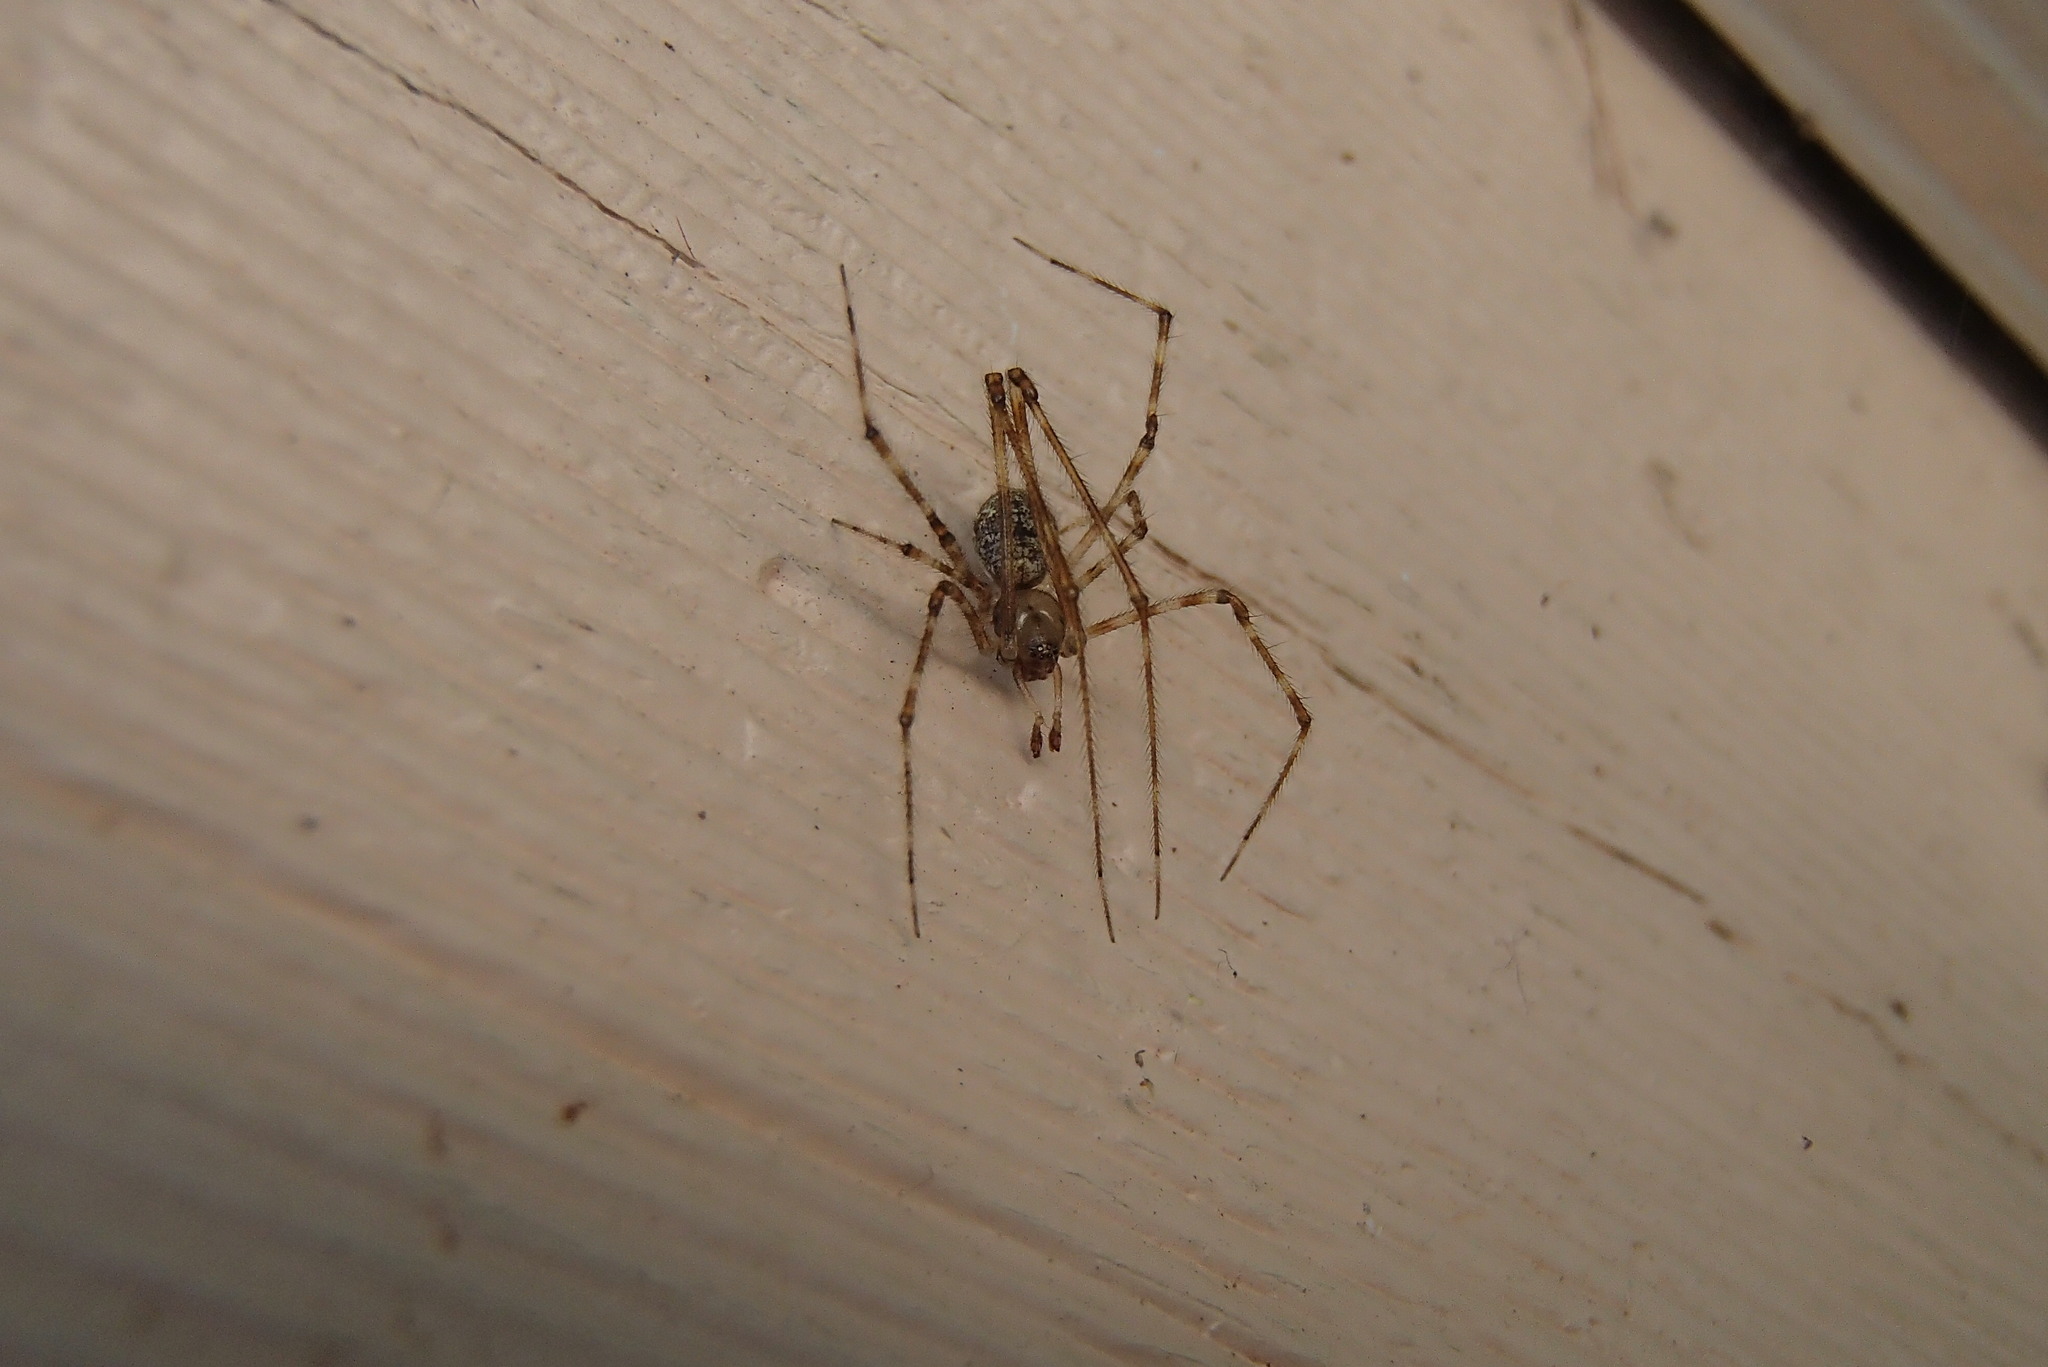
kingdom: Animalia
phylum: Arthropoda
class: Arachnida
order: Araneae
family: Theridiidae
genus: Cryptachaea
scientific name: Cryptachaea gigantipes
